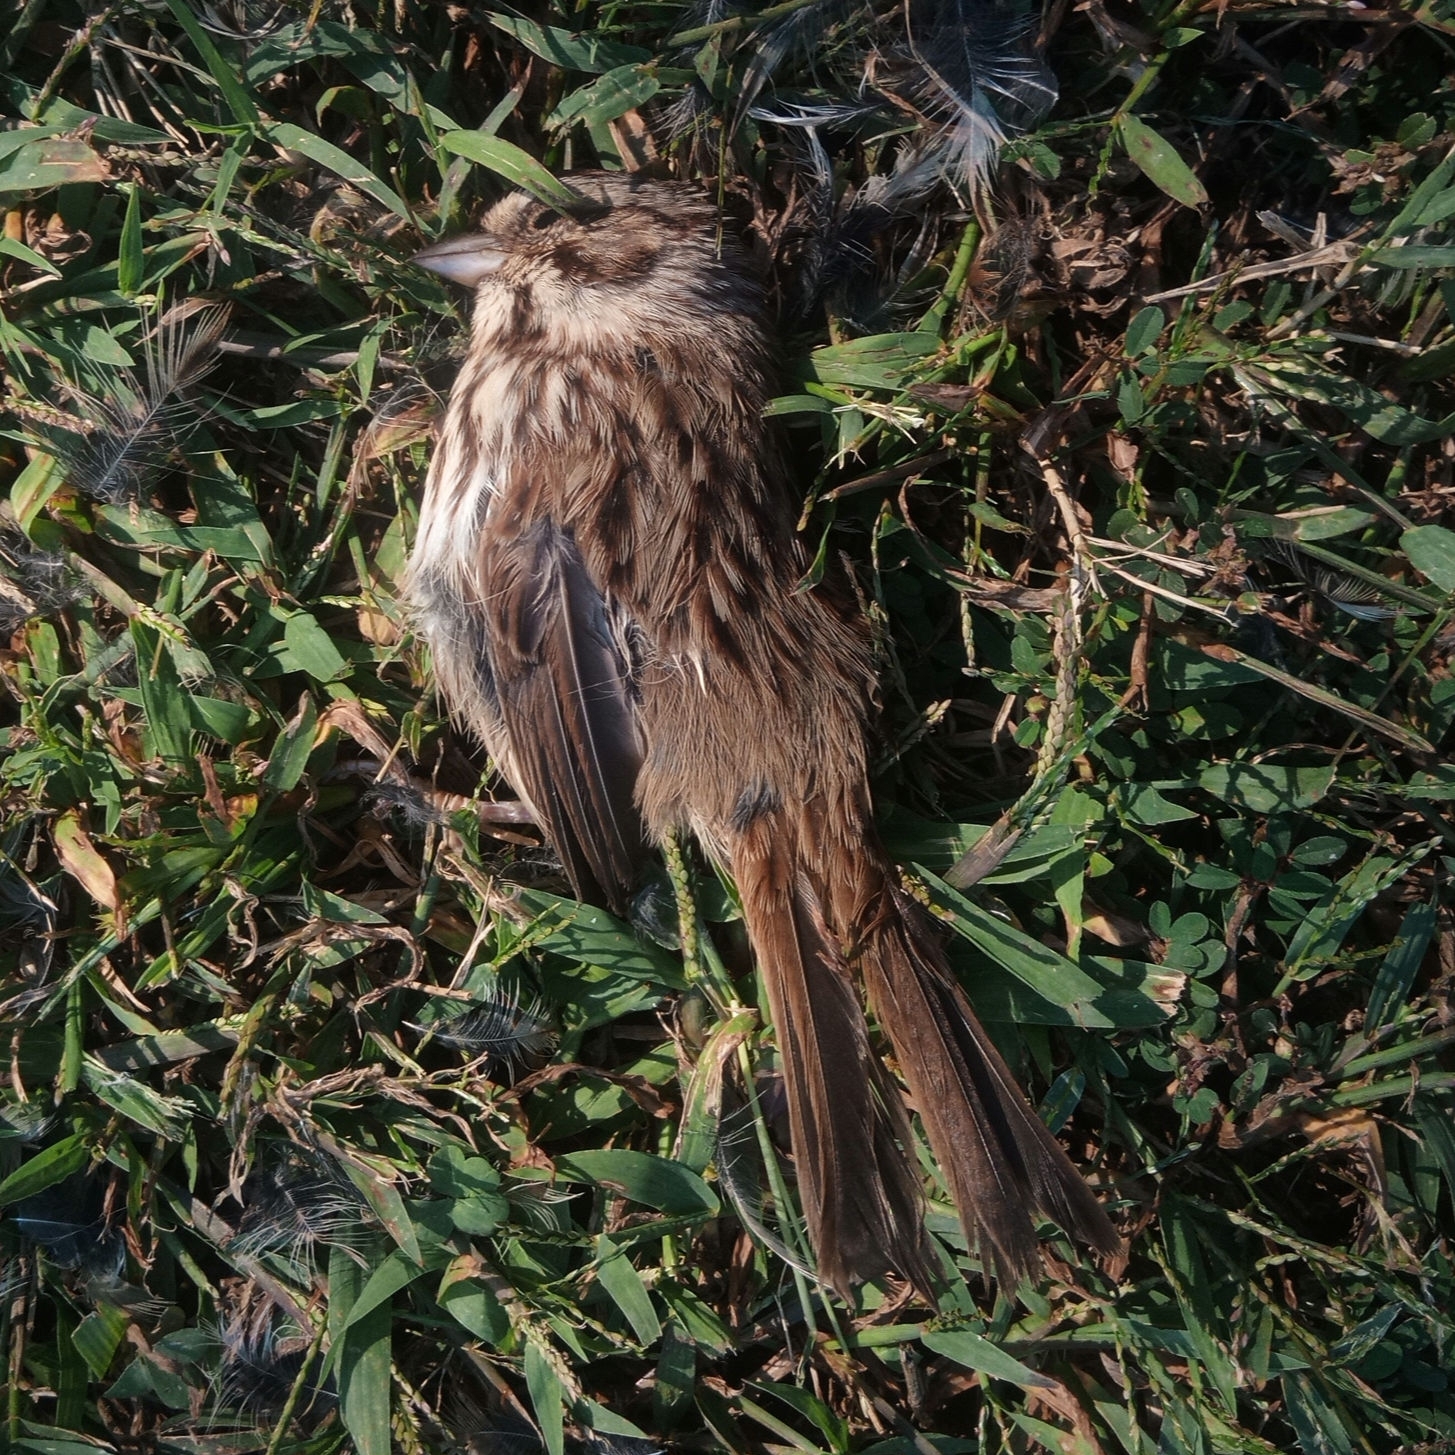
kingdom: Animalia
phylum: Chordata
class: Aves
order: Passeriformes
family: Passerellidae
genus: Melospiza
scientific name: Melospiza melodia
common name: Song sparrow
